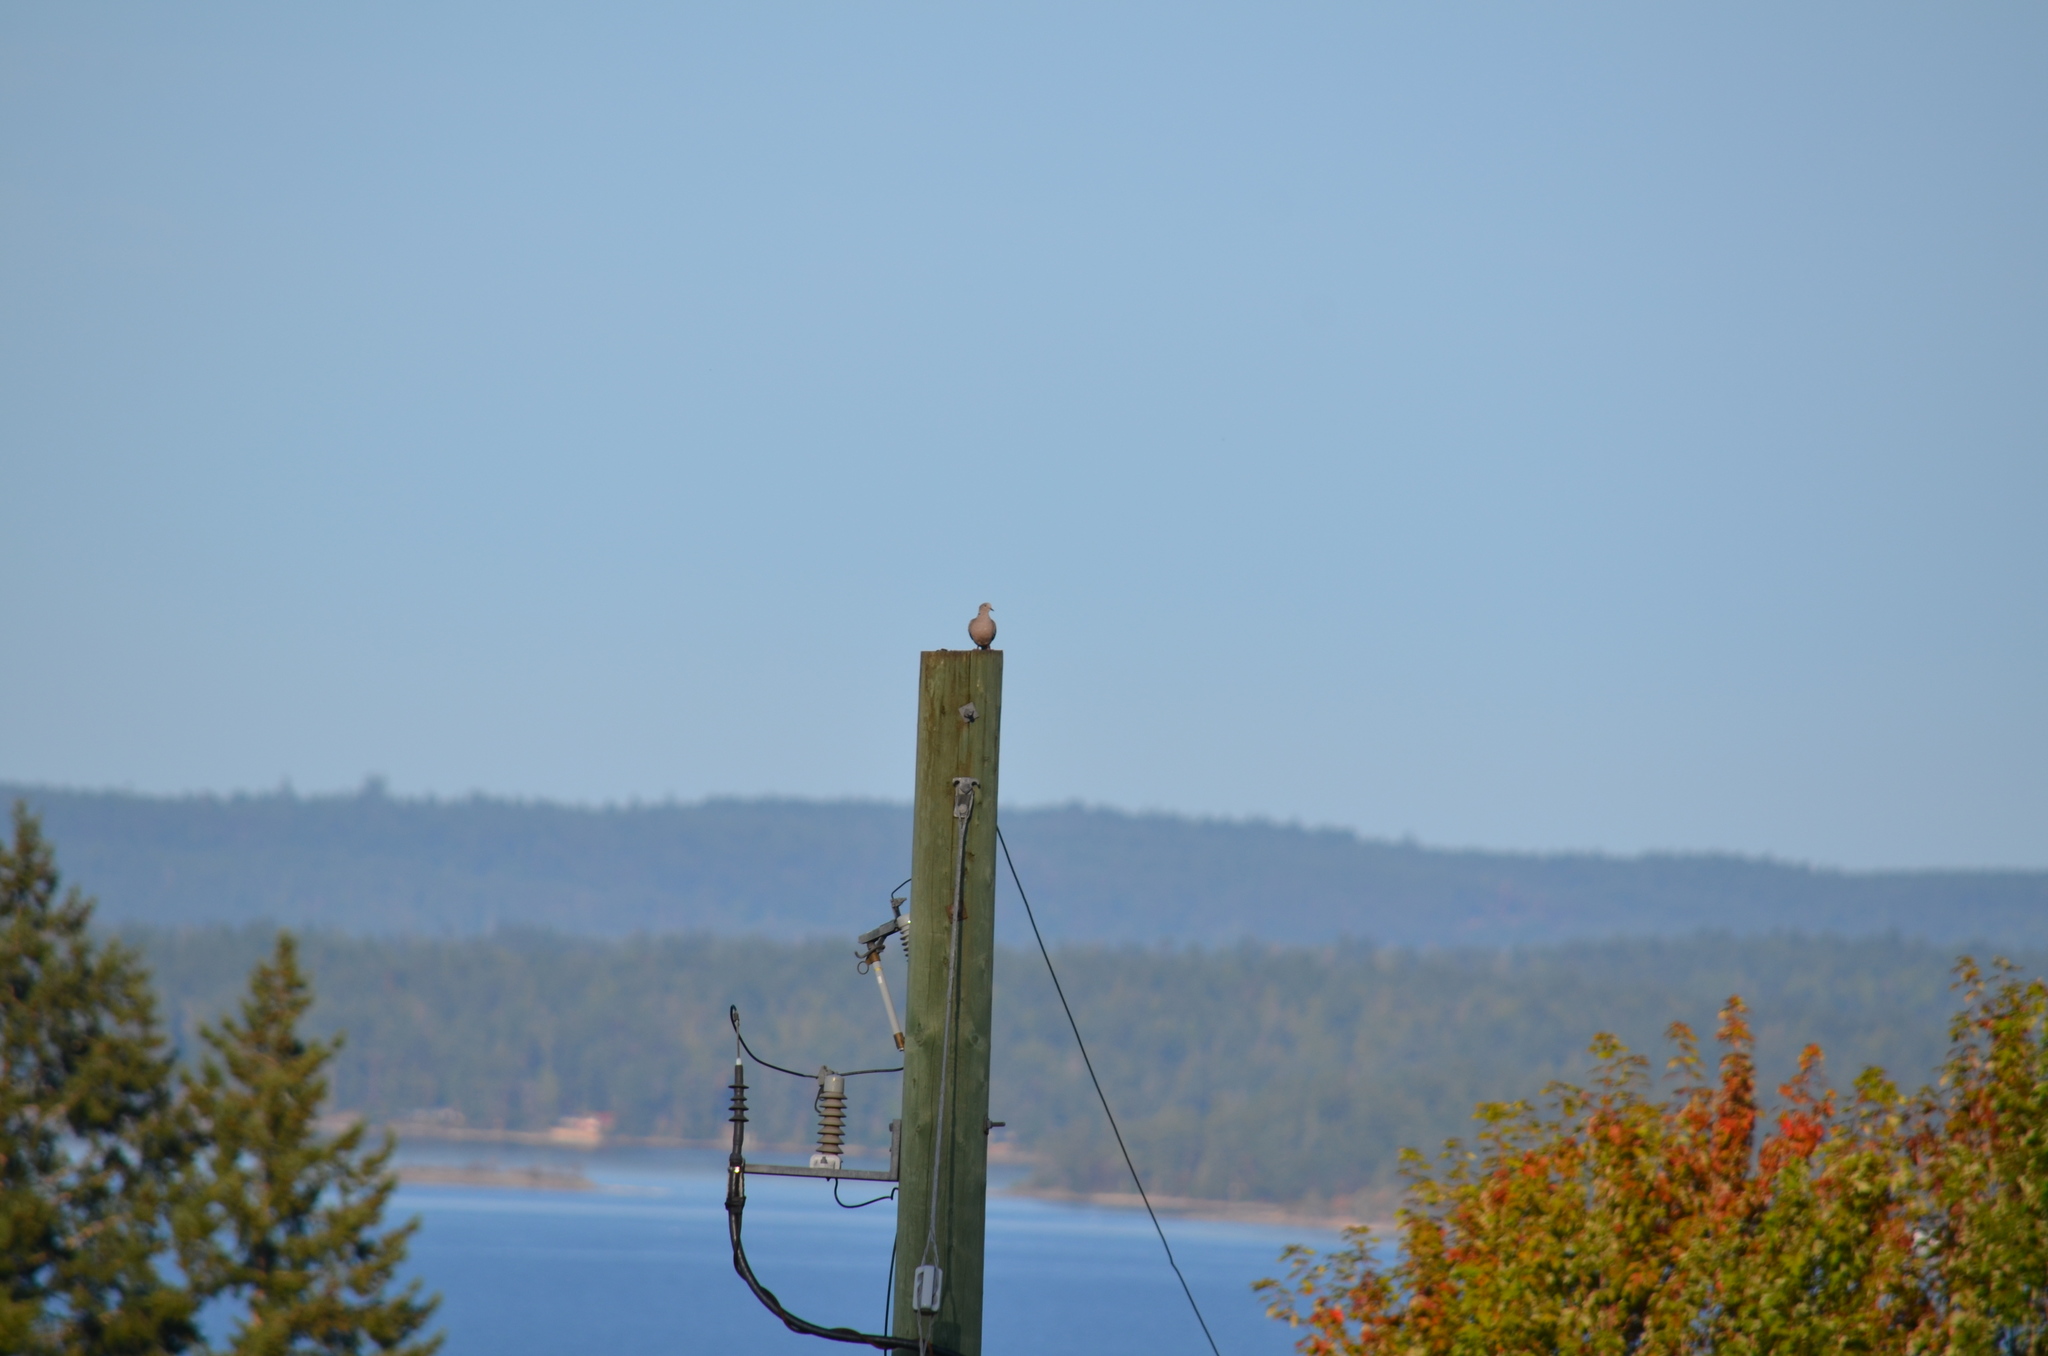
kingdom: Animalia
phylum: Chordata
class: Aves
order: Columbiformes
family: Columbidae
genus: Streptopelia
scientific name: Streptopelia decaocto
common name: Eurasian collared dove
